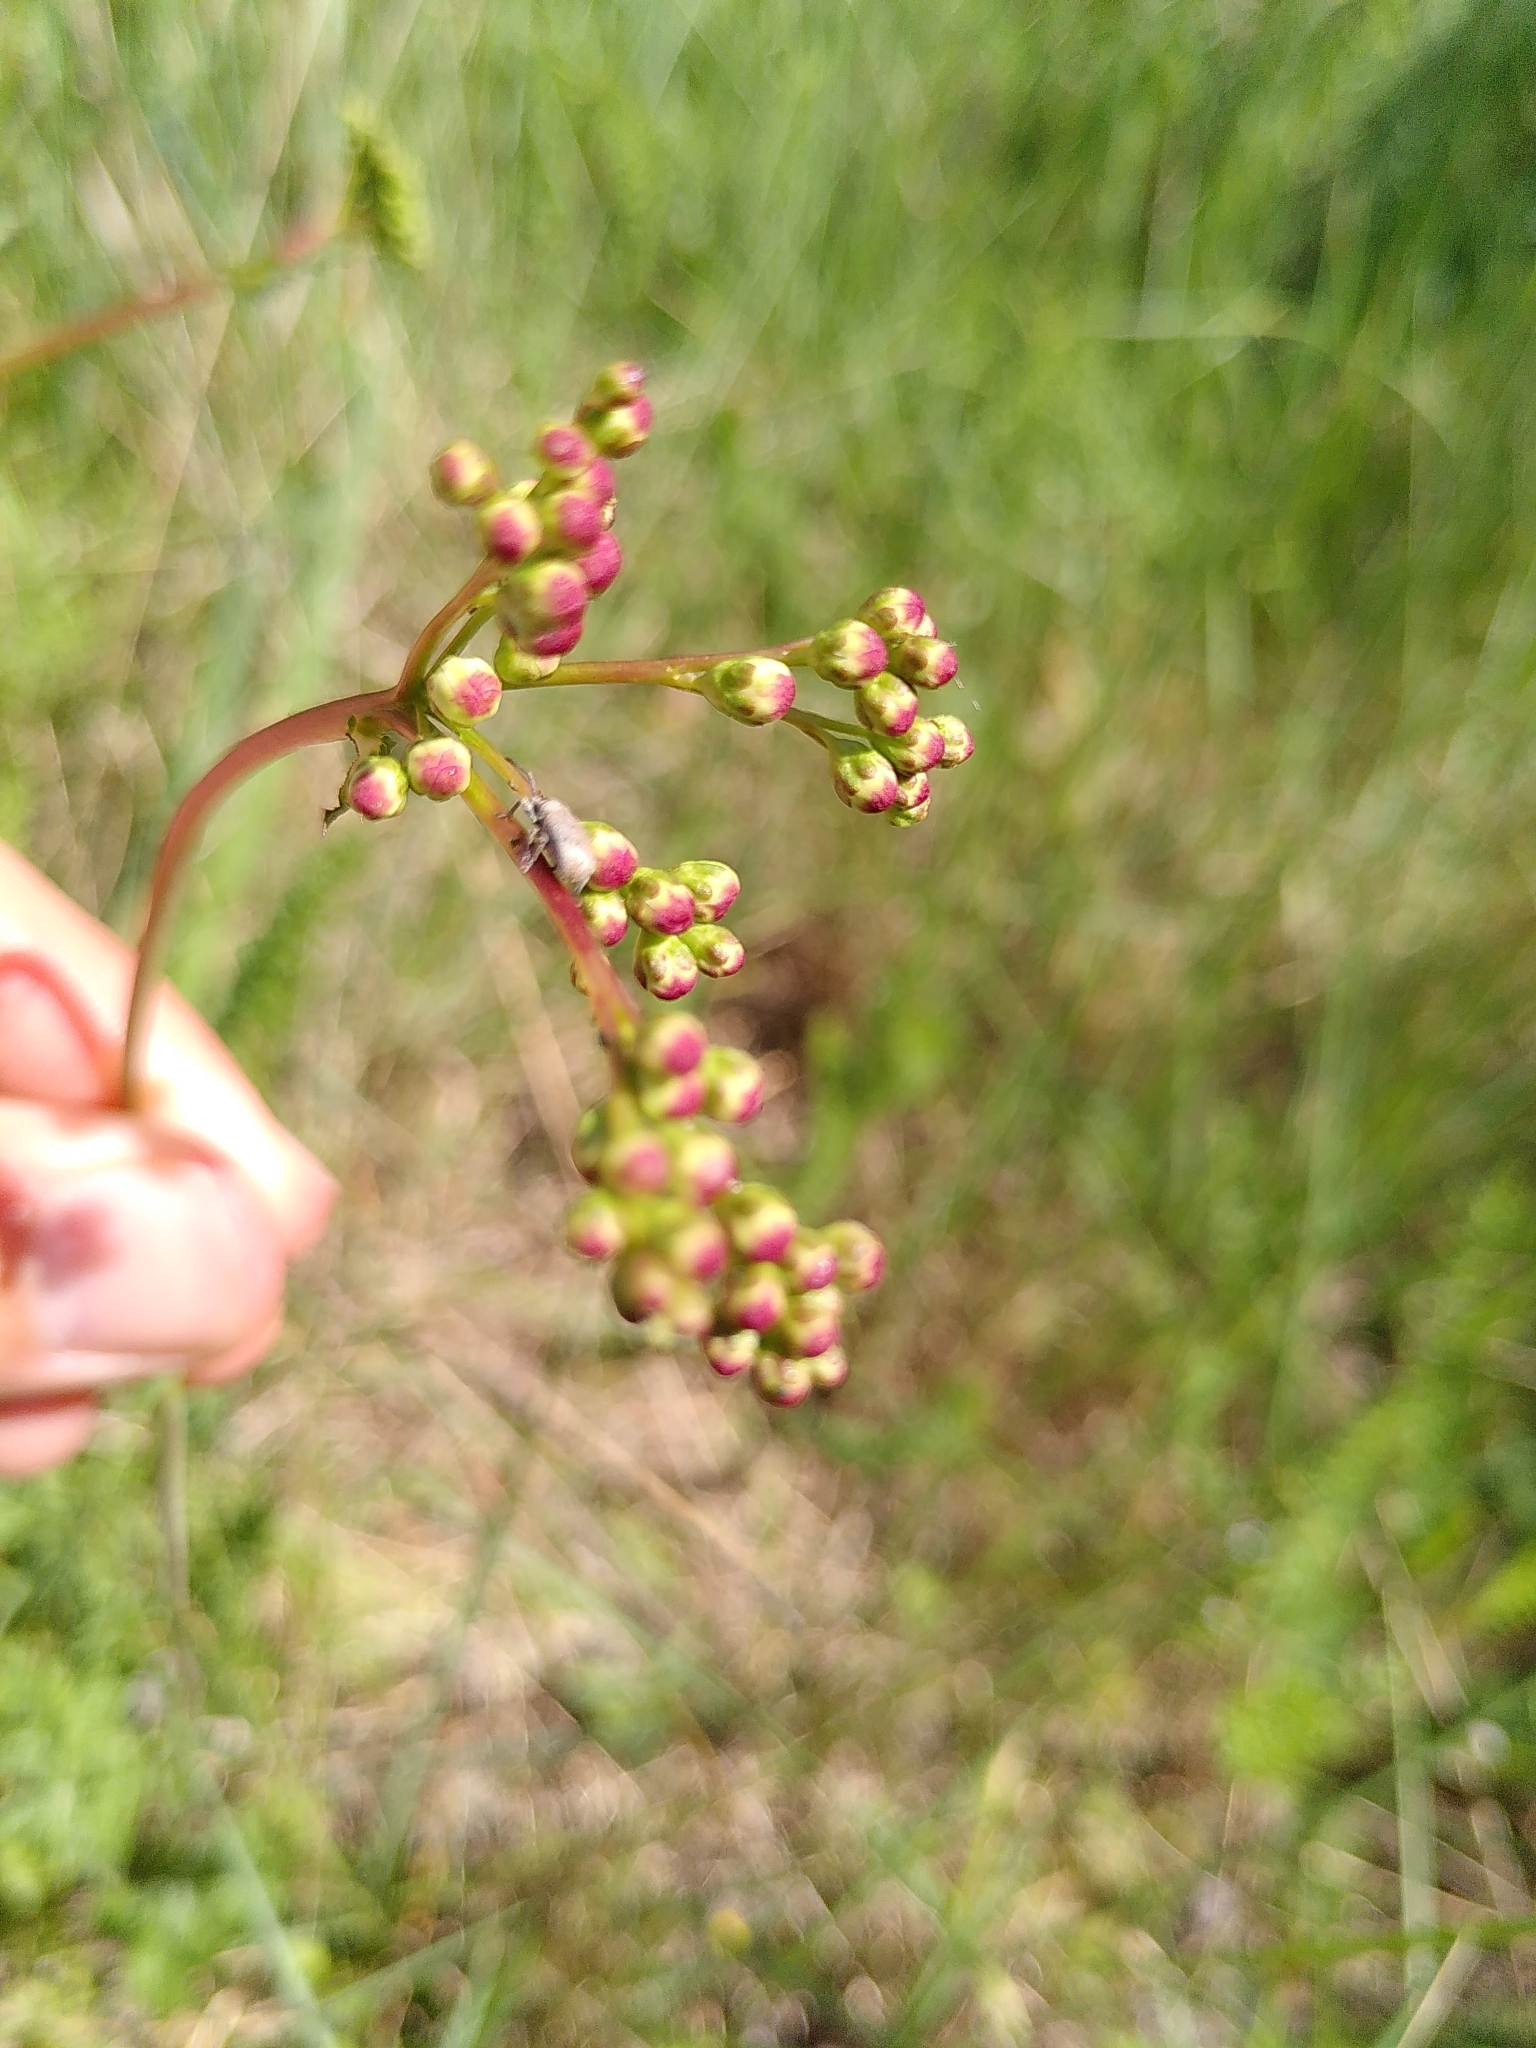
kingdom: Plantae
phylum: Tracheophyta
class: Magnoliopsida
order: Rosales
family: Rosaceae
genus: Filipendula
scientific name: Filipendula vulgaris
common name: Dropwort
